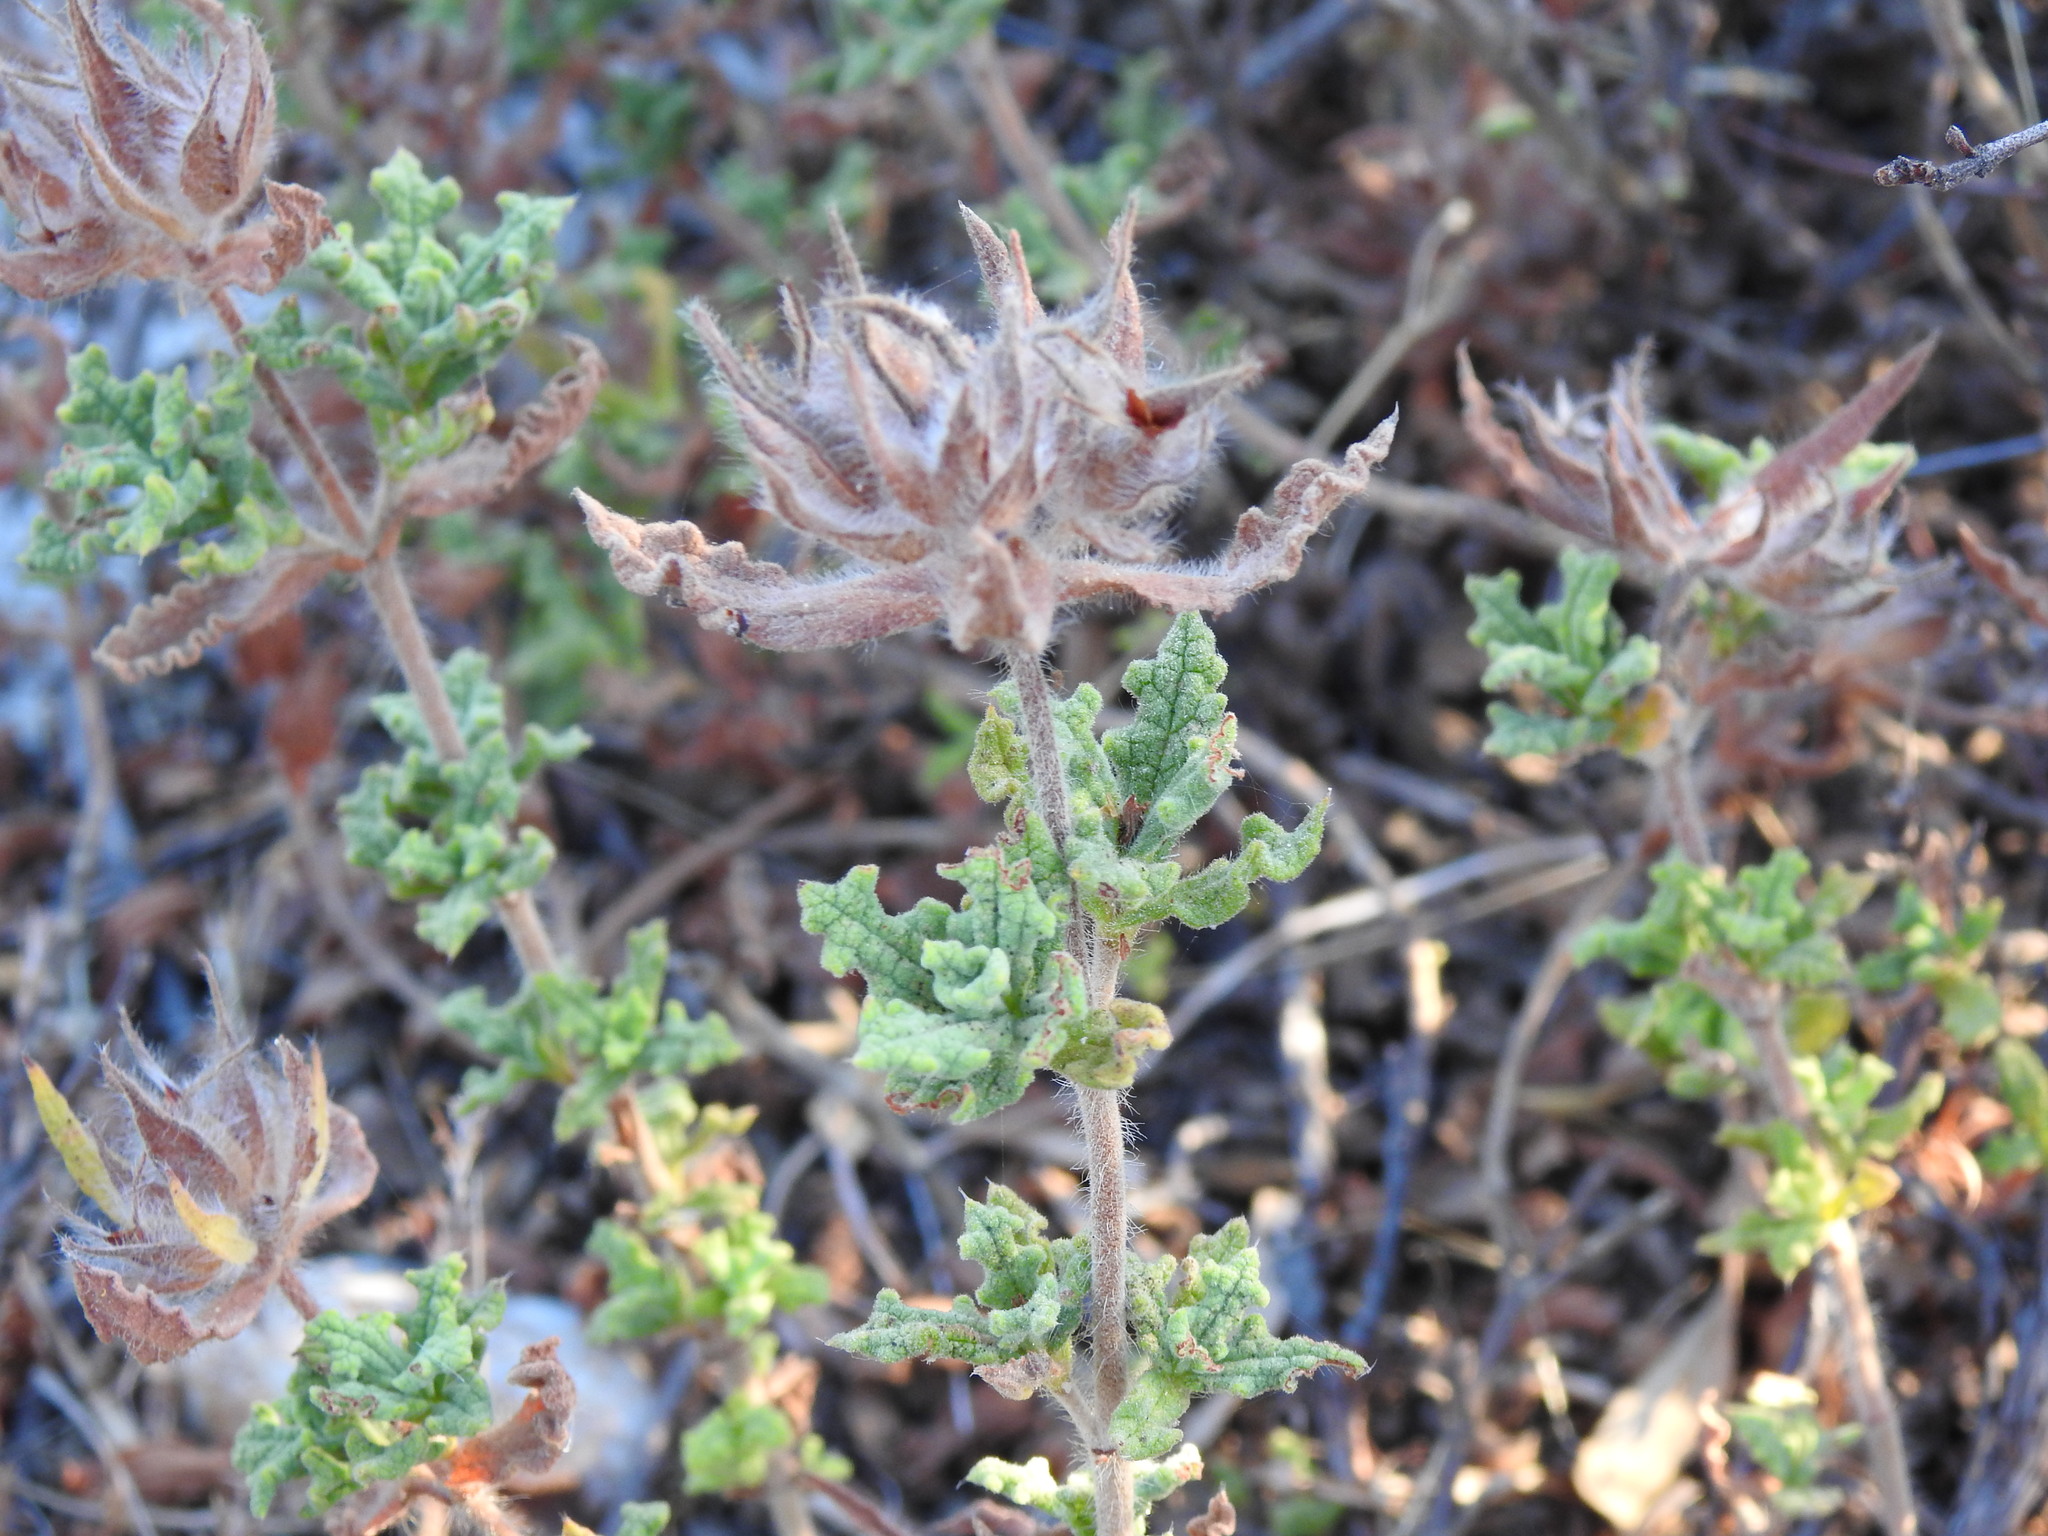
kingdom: Plantae
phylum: Tracheophyta
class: Magnoliopsida
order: Malvales
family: Cistaceae
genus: Cistus
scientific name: Cistus crispus
